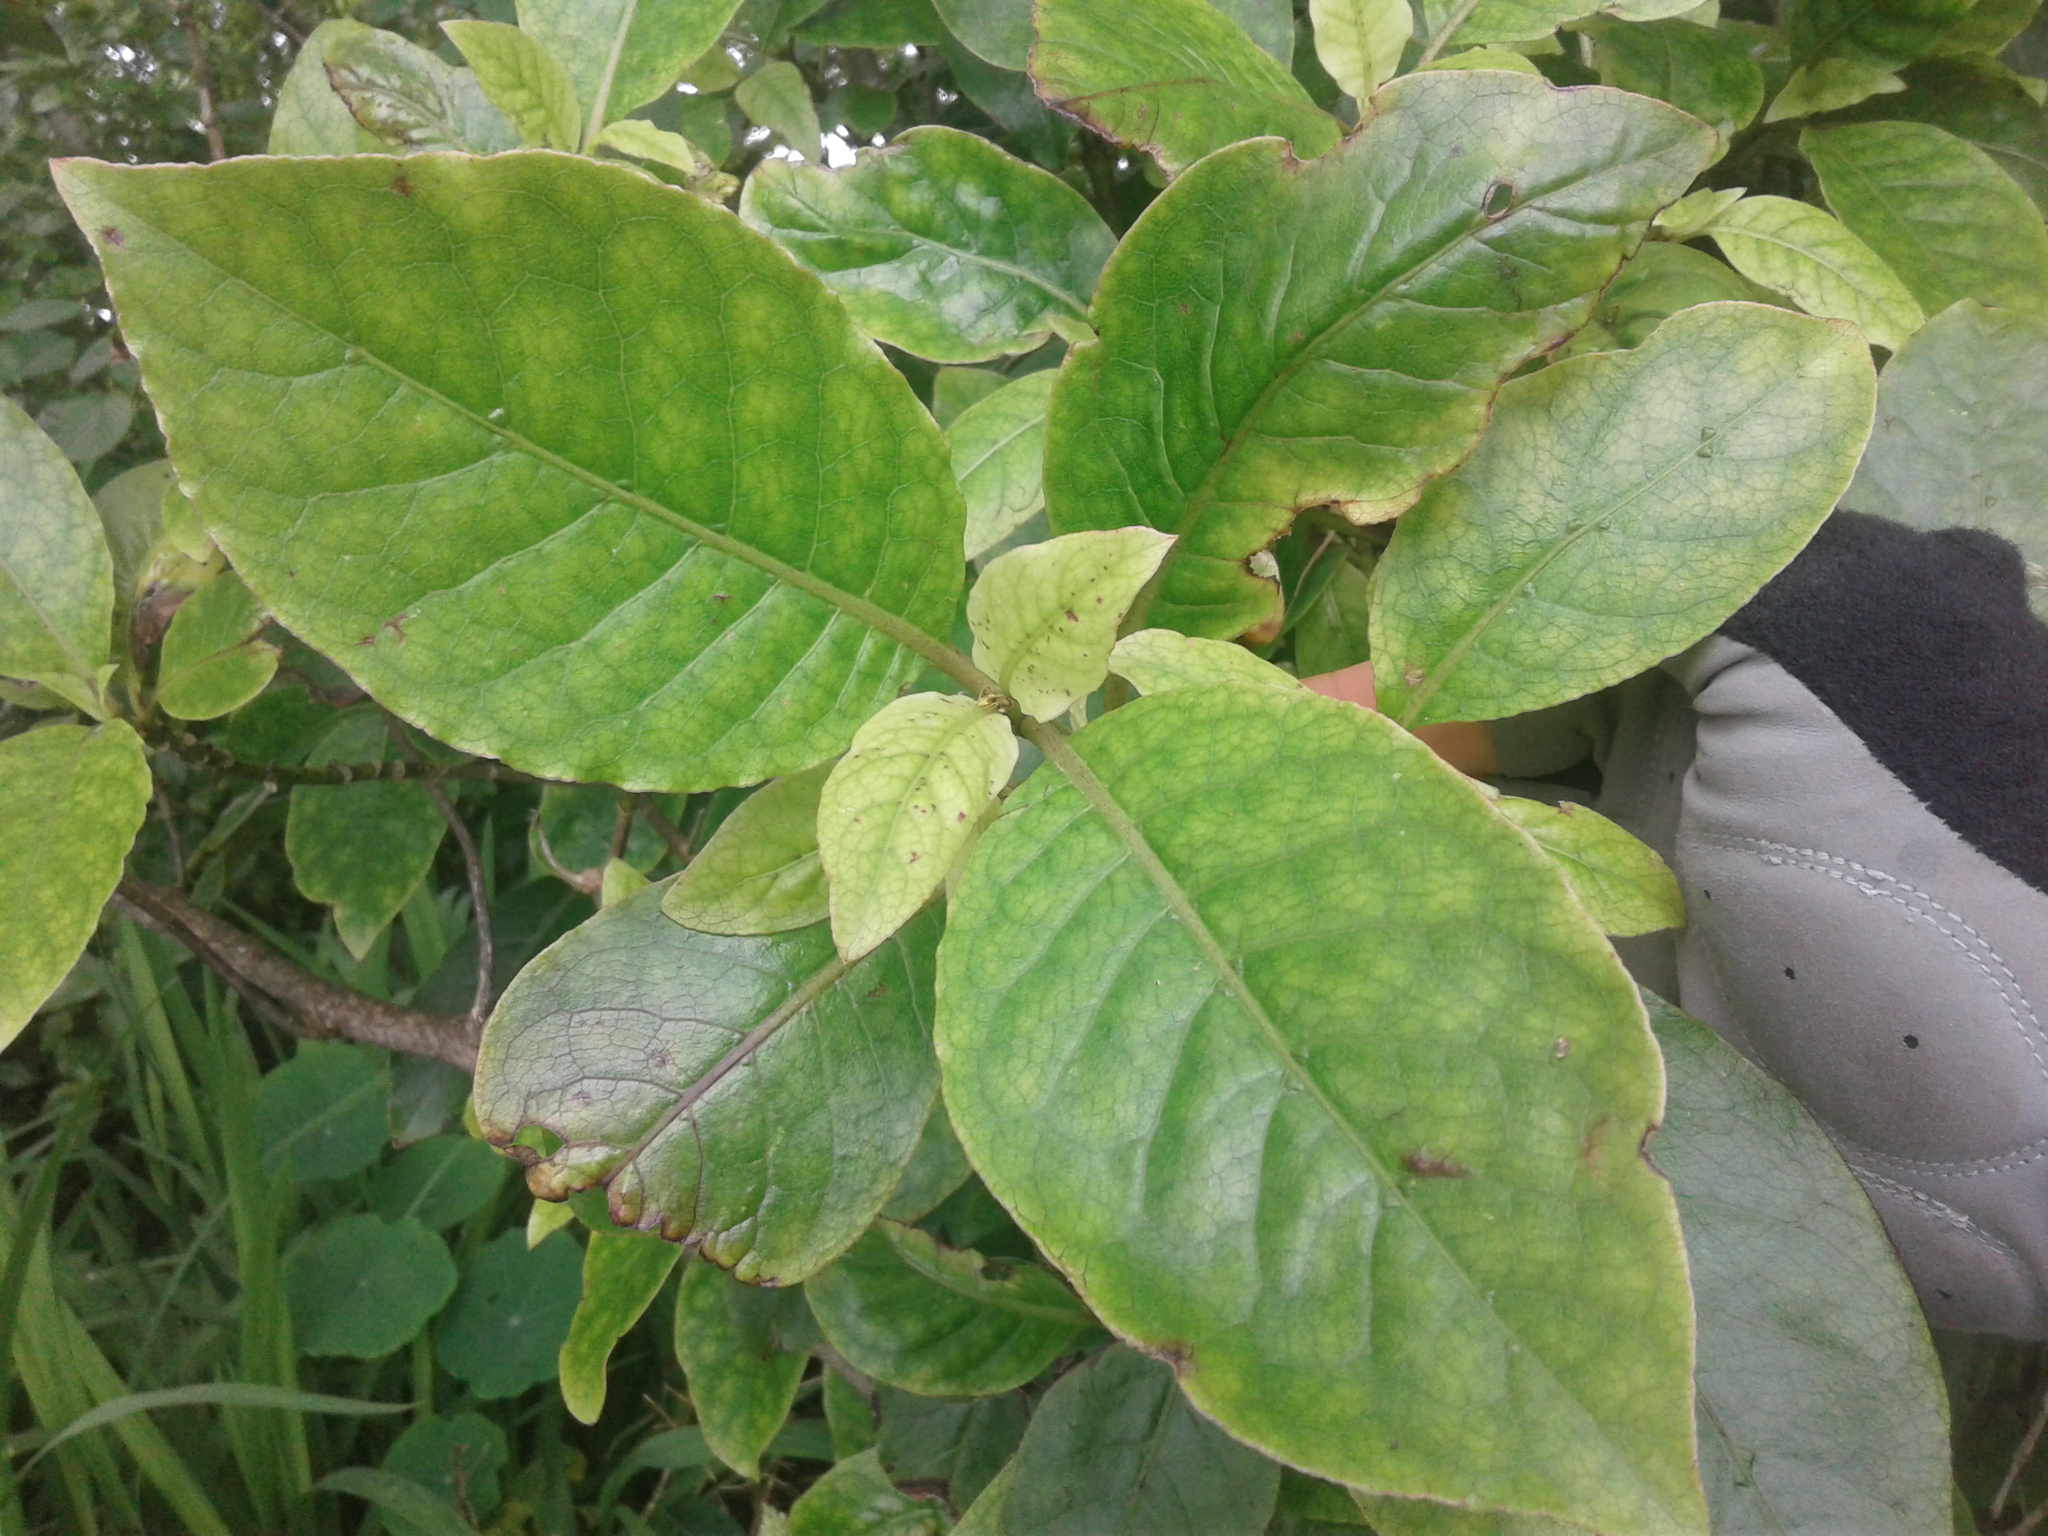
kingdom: Plantae
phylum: Tracheophyta
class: Magnoliopsida
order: Gentianales
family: Rubiaceae
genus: Coprosma
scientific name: Coprosma autumnalis
